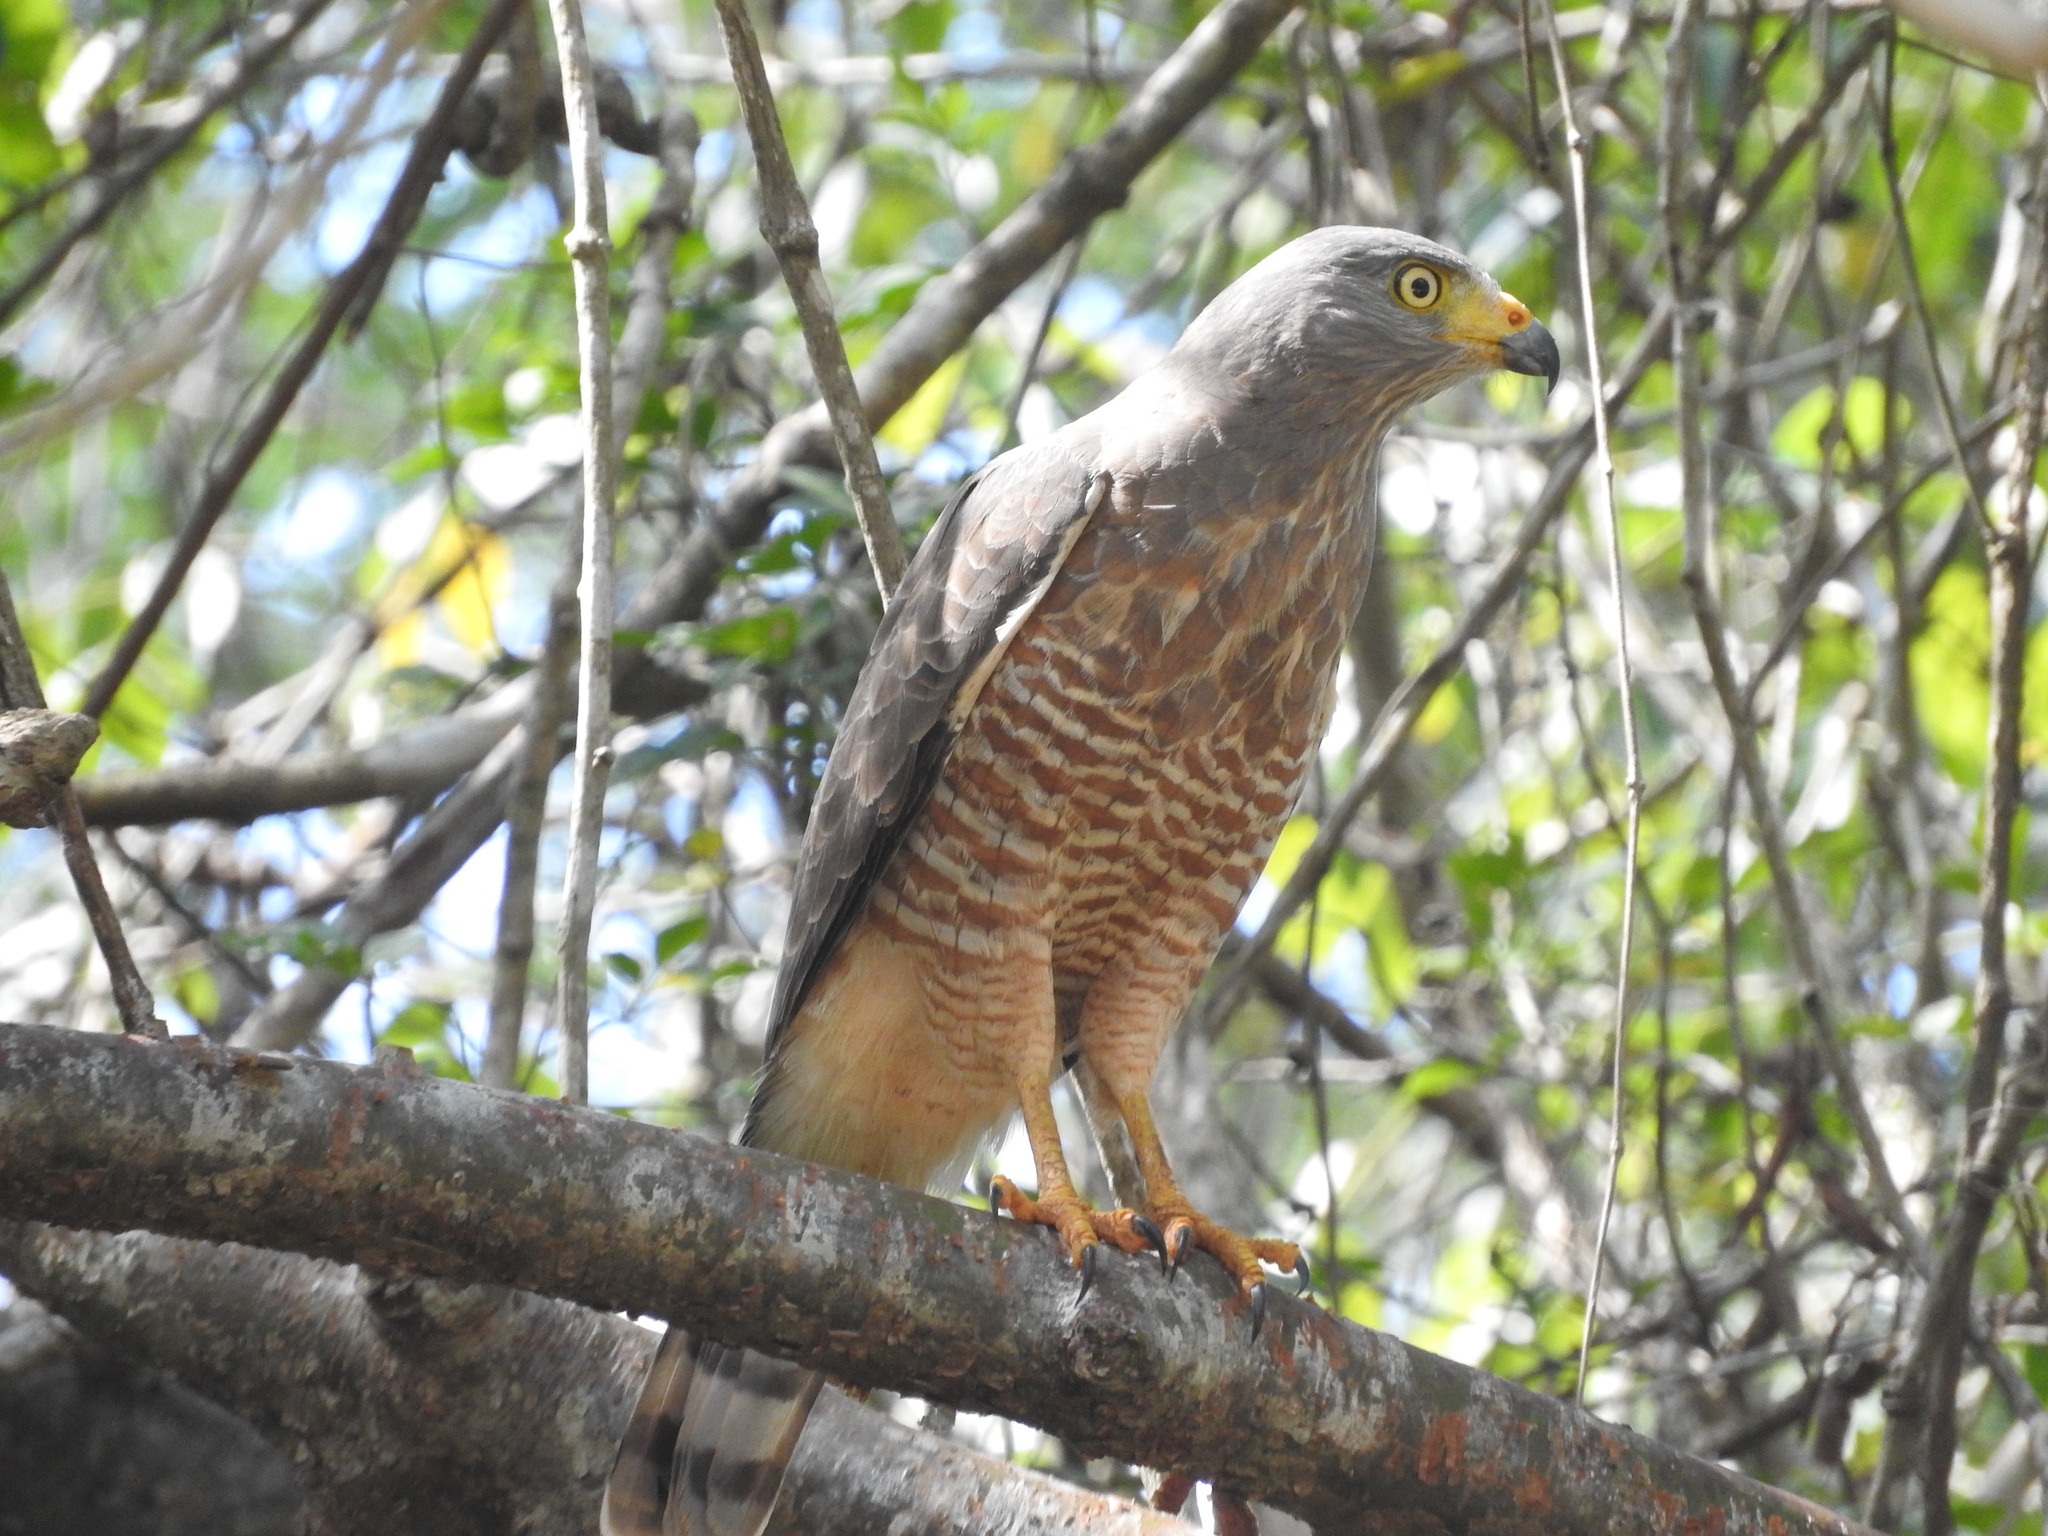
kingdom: Animalia
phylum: Chordata
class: Aves
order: Accipitriformes
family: Accipitridae
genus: Rupornis
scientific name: Rupornis magnirostris
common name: Roadside hawk
